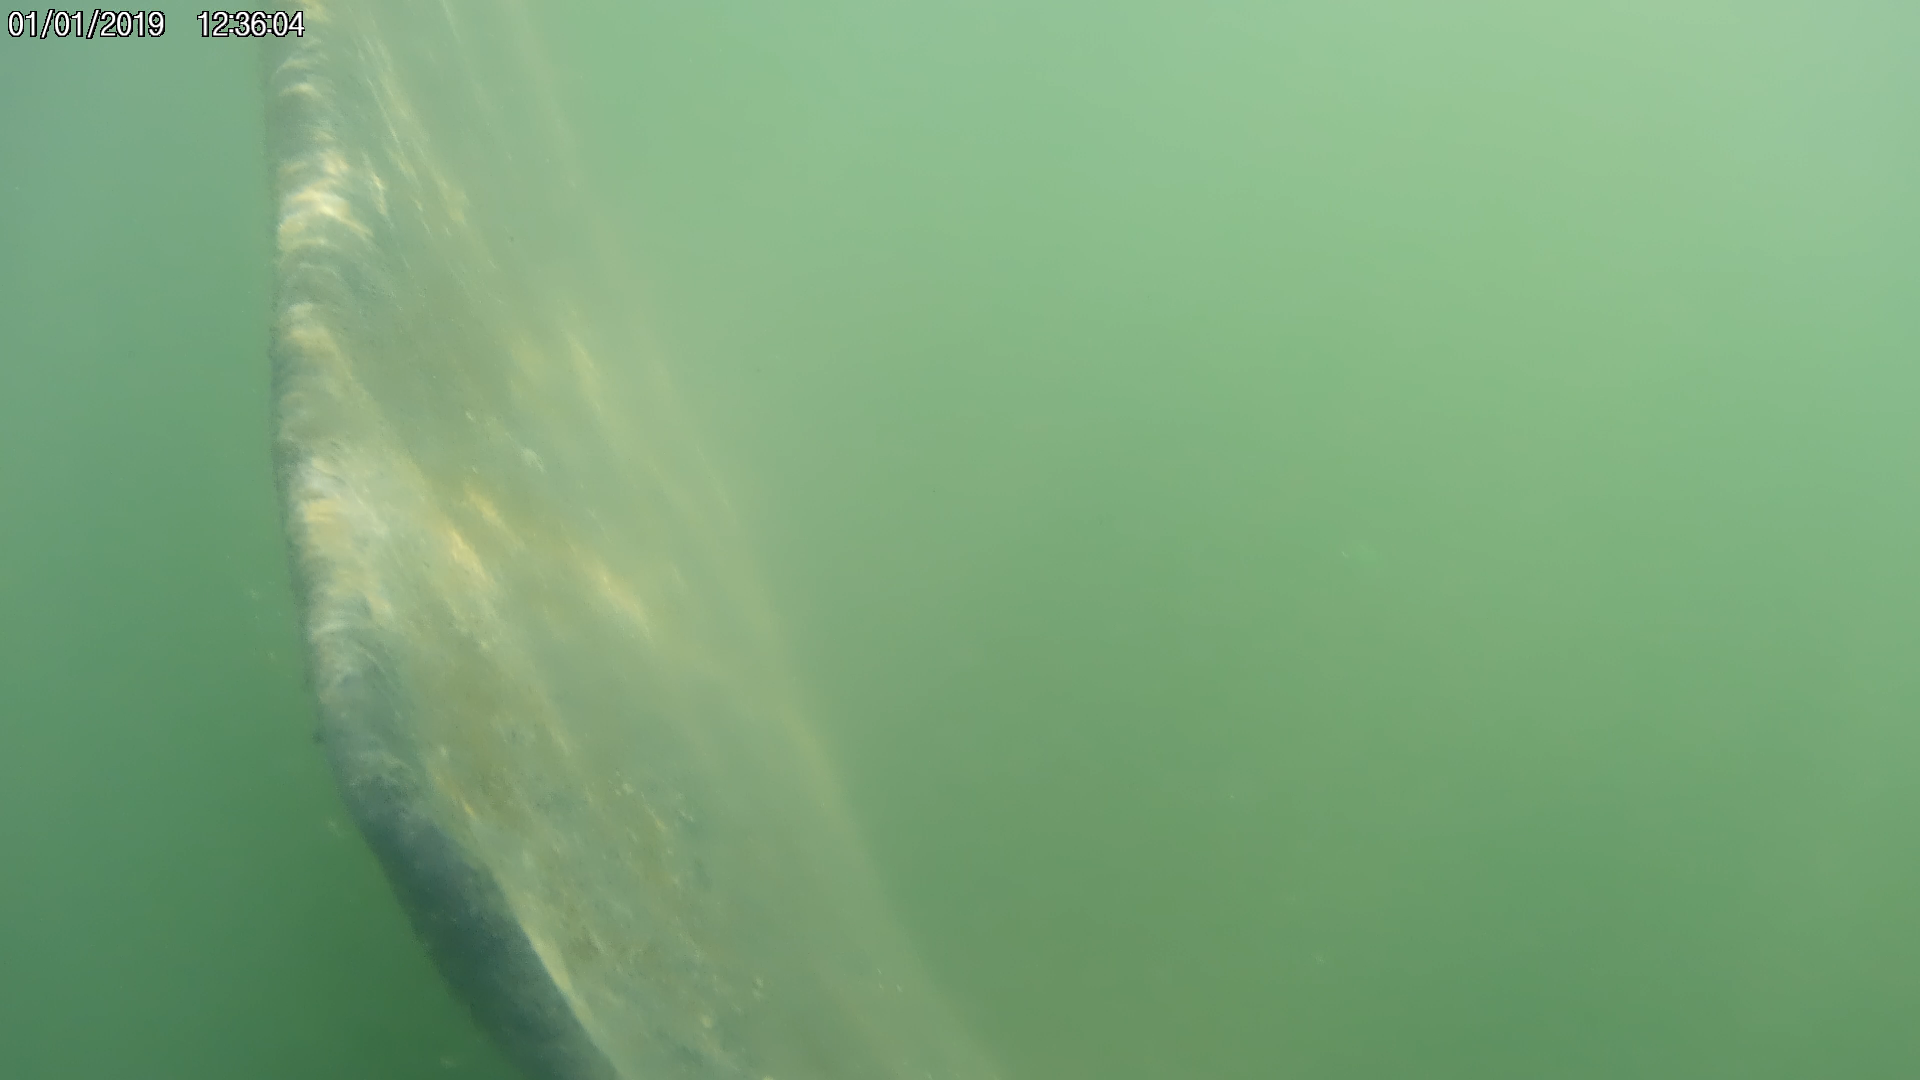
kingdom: Animalia
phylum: Chordata
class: Mammalia
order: Sirenia
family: Trichechidae
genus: Trichechus
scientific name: Trichechus manatus
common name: West indian manatee
